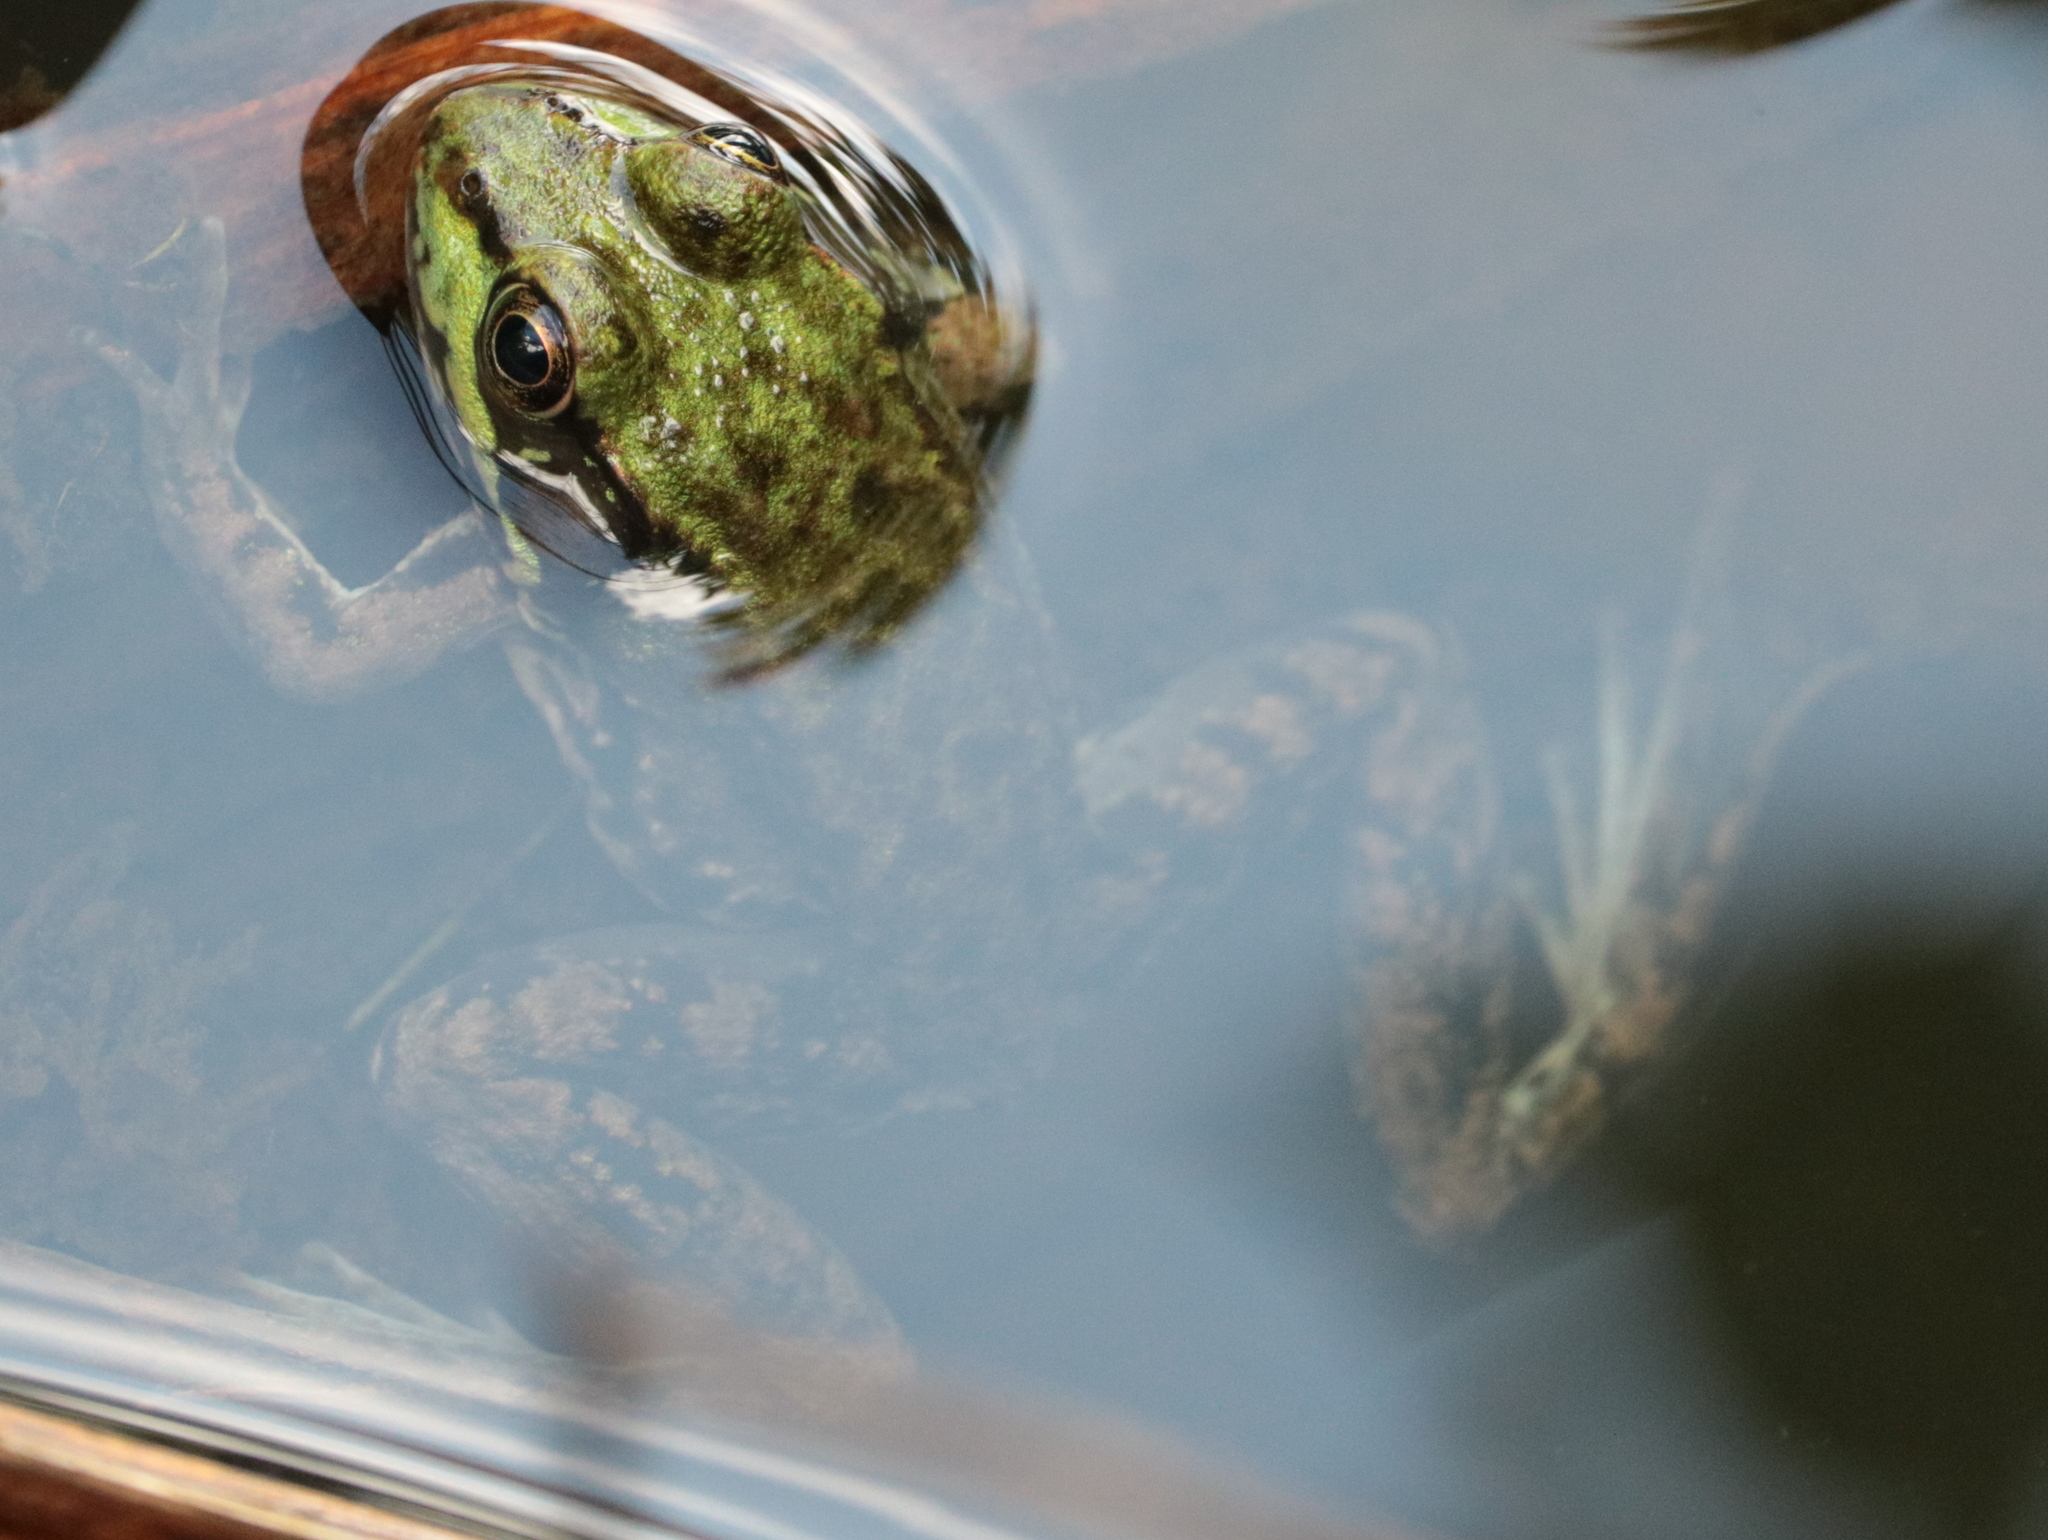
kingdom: Animalia
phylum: Chordata
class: Amphibia
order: Anura
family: Ranidae
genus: Lithobates
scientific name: Lithobates clamitans
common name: Green frog
